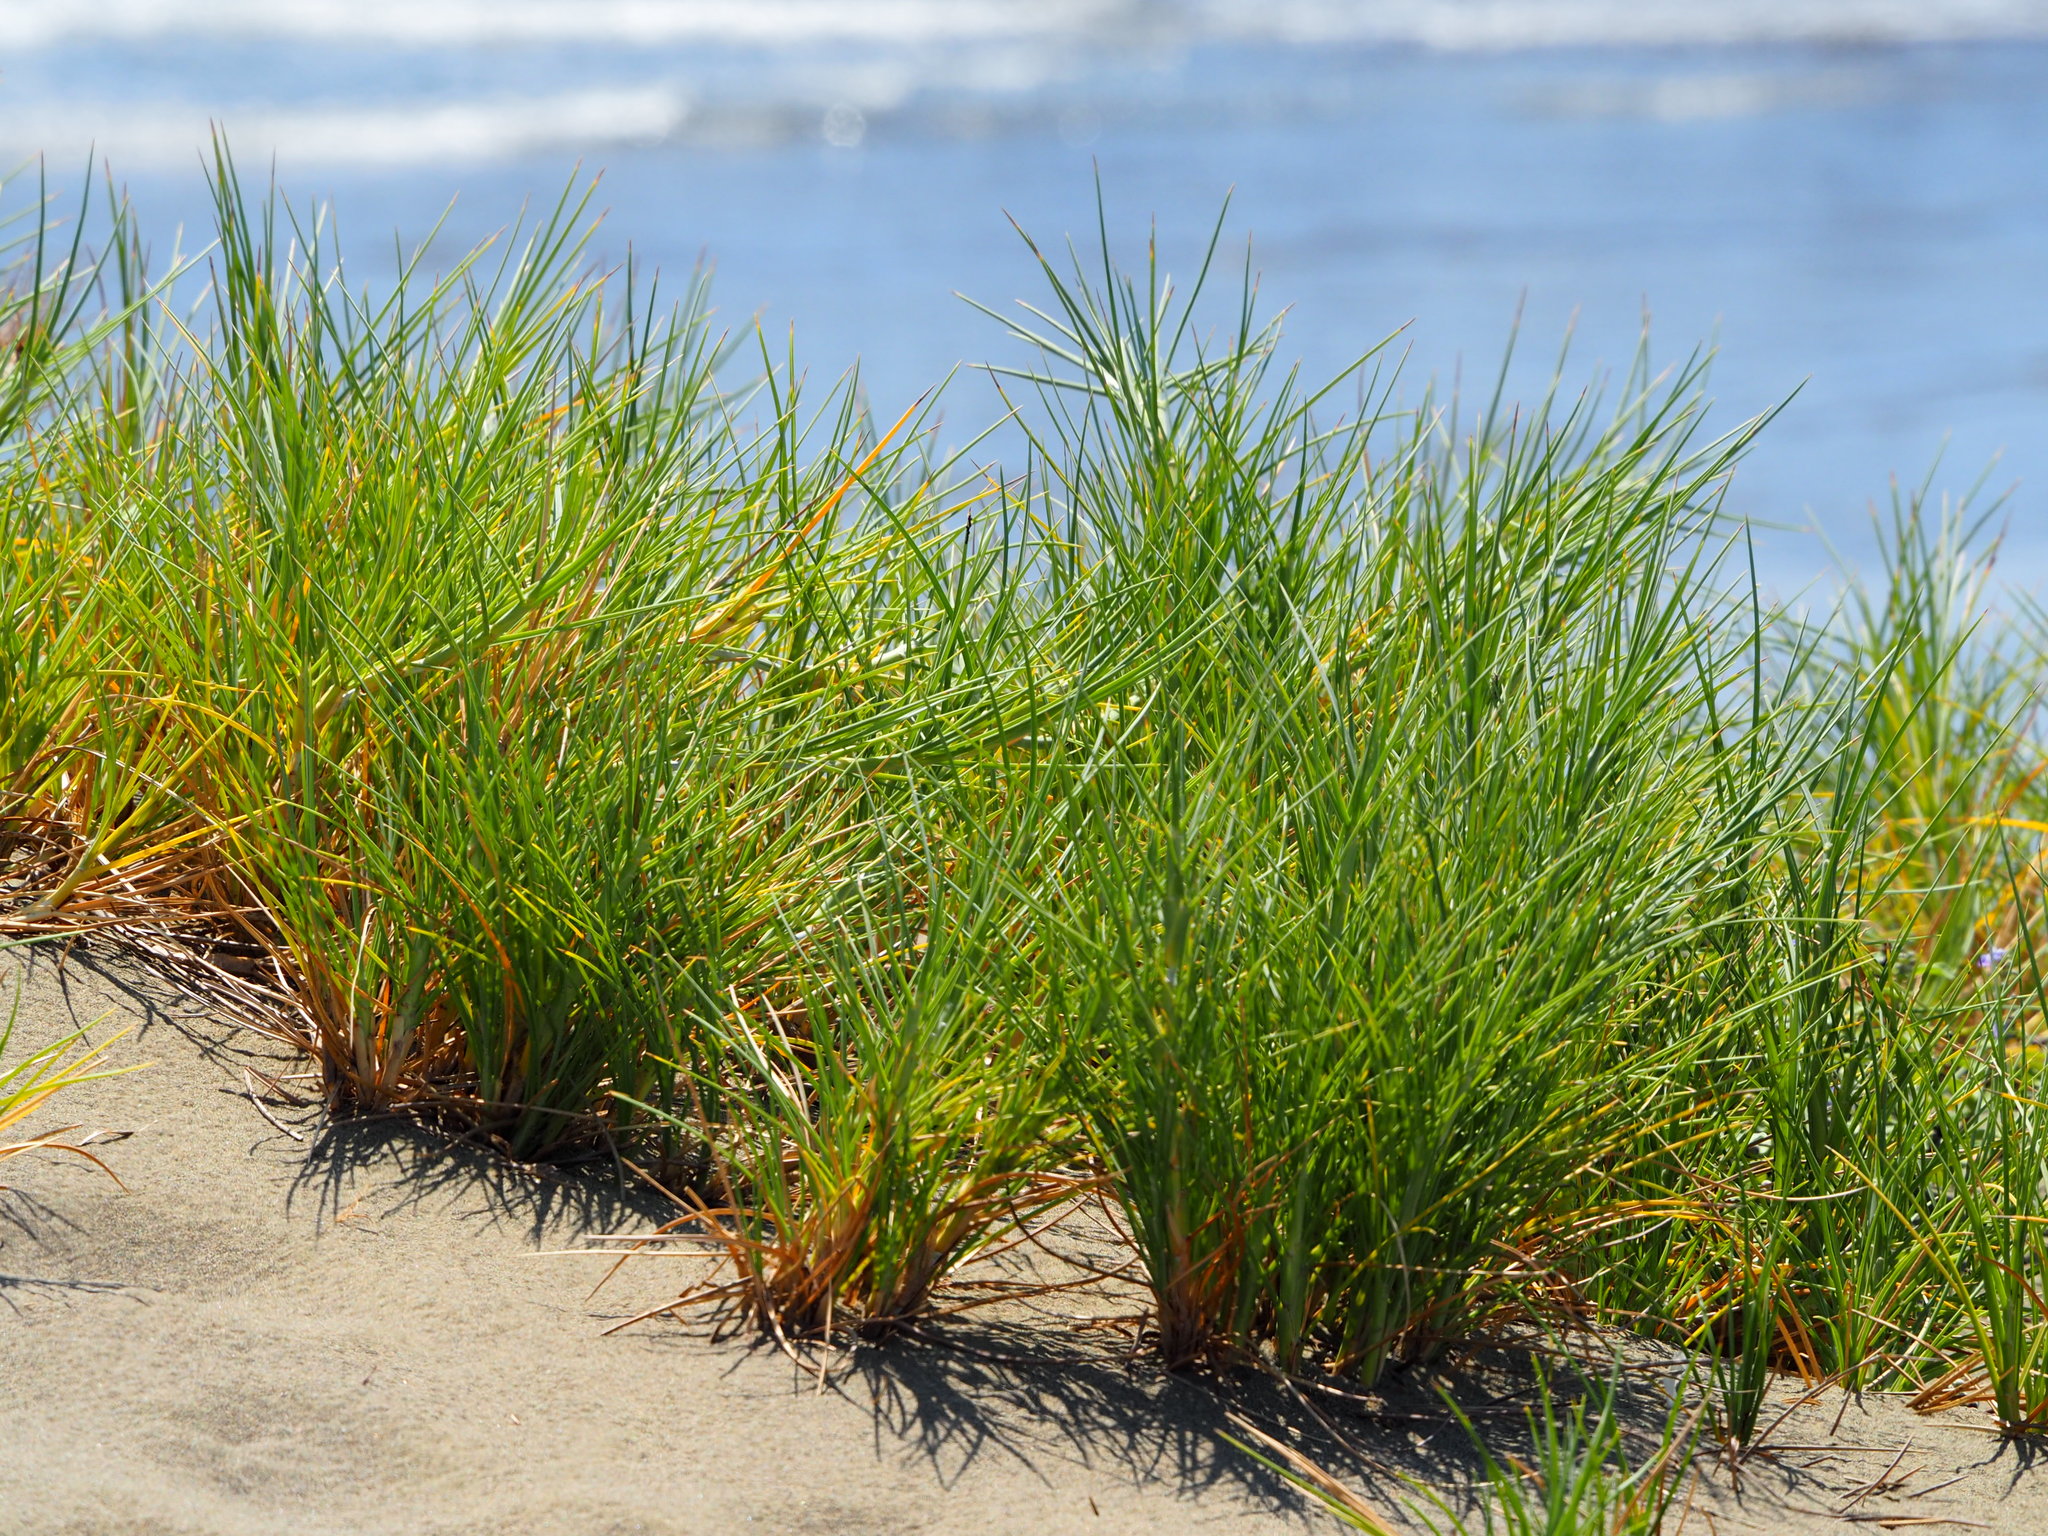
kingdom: Plantae
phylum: Tracheophyta
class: Liliopsida
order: Poales
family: Poaceae
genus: Spinifex
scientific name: Spinifex littoreus
